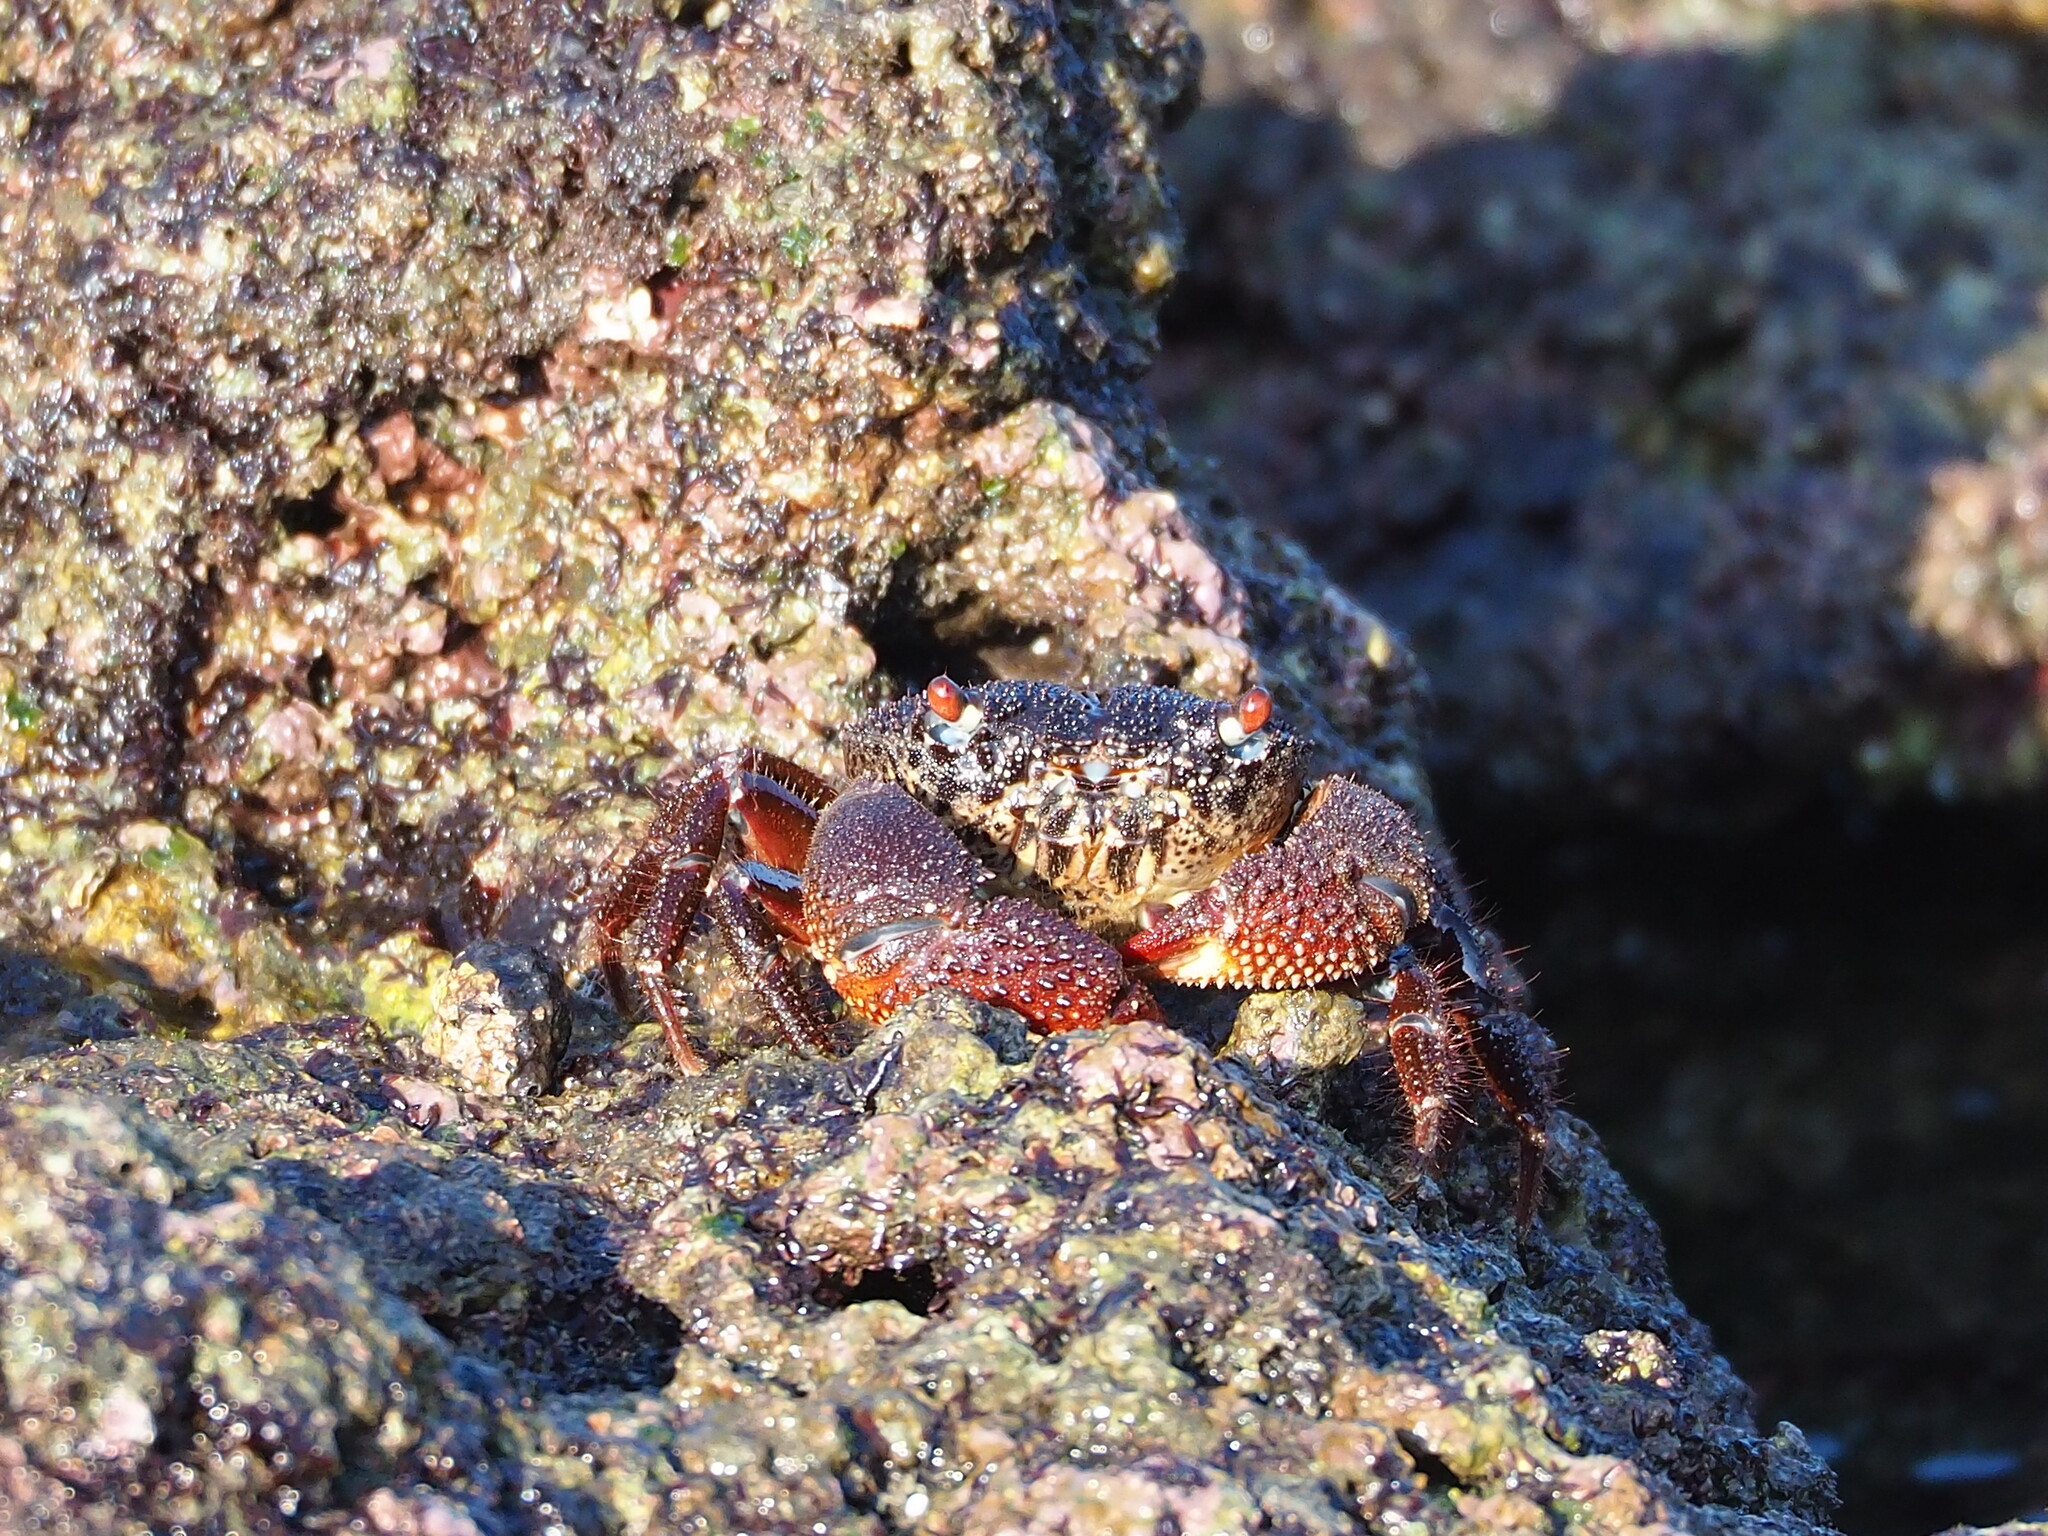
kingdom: Animalia
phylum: Arthropoda
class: Malacostraca
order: Decapoda
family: Eriphiidae
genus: Eriphia
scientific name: Eriphia ferox
